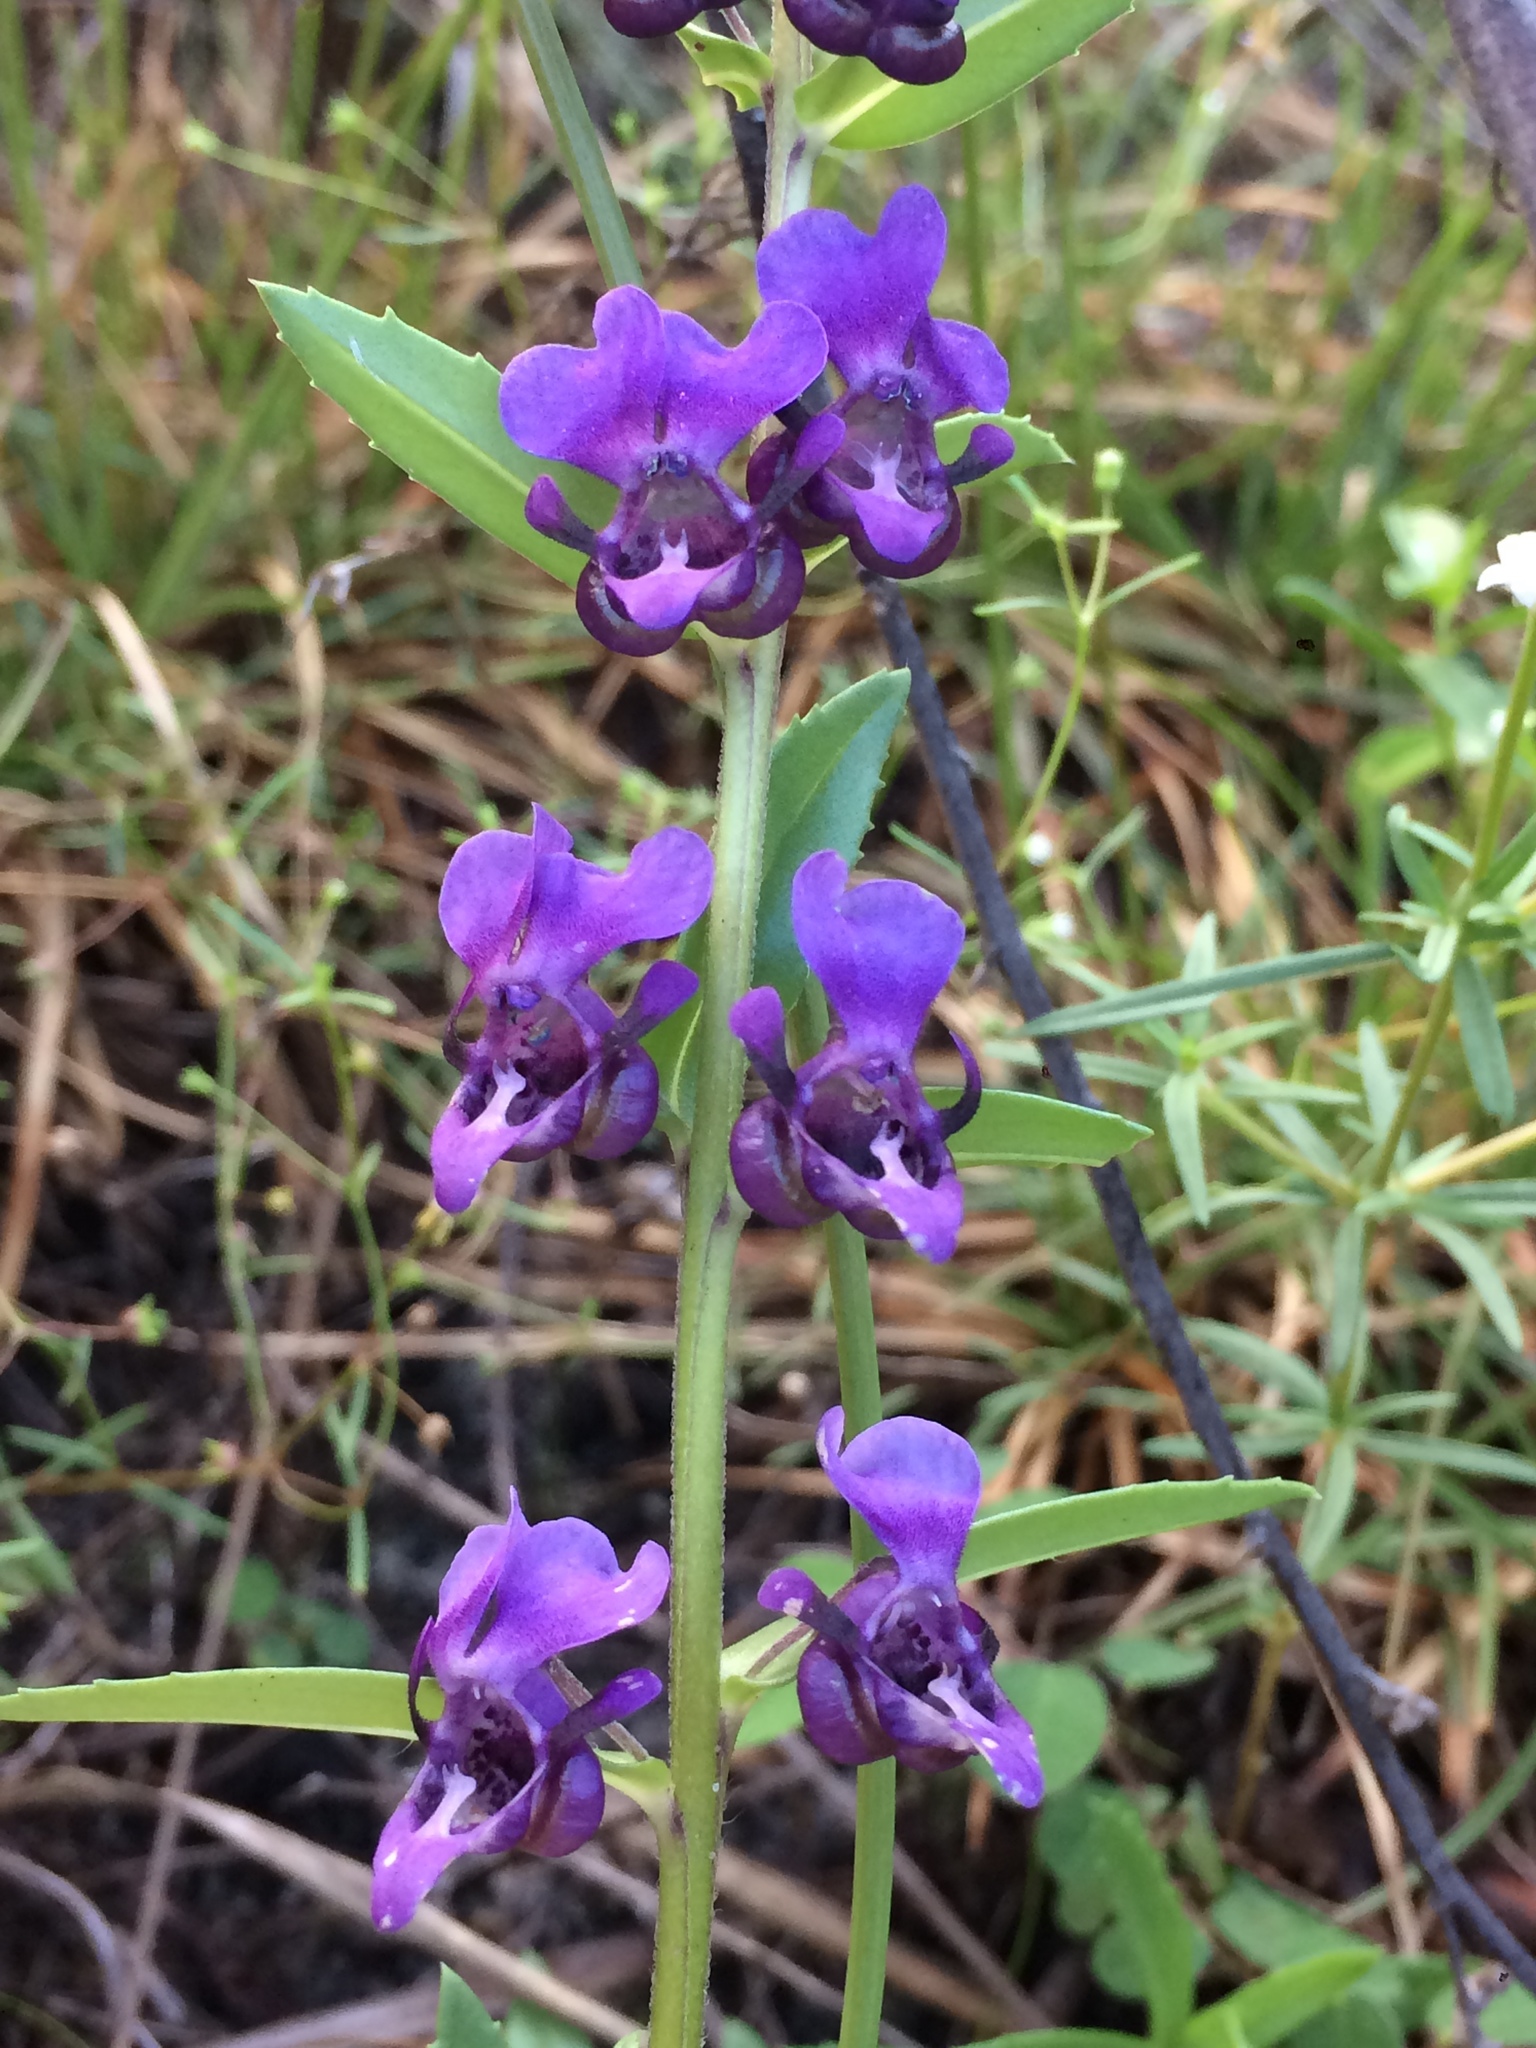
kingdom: Plantae
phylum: Tracheophyta
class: Magnoliopsida
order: Lamiales
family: Plantaginaceae
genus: Angelonia
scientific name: Angelonia cornigera
